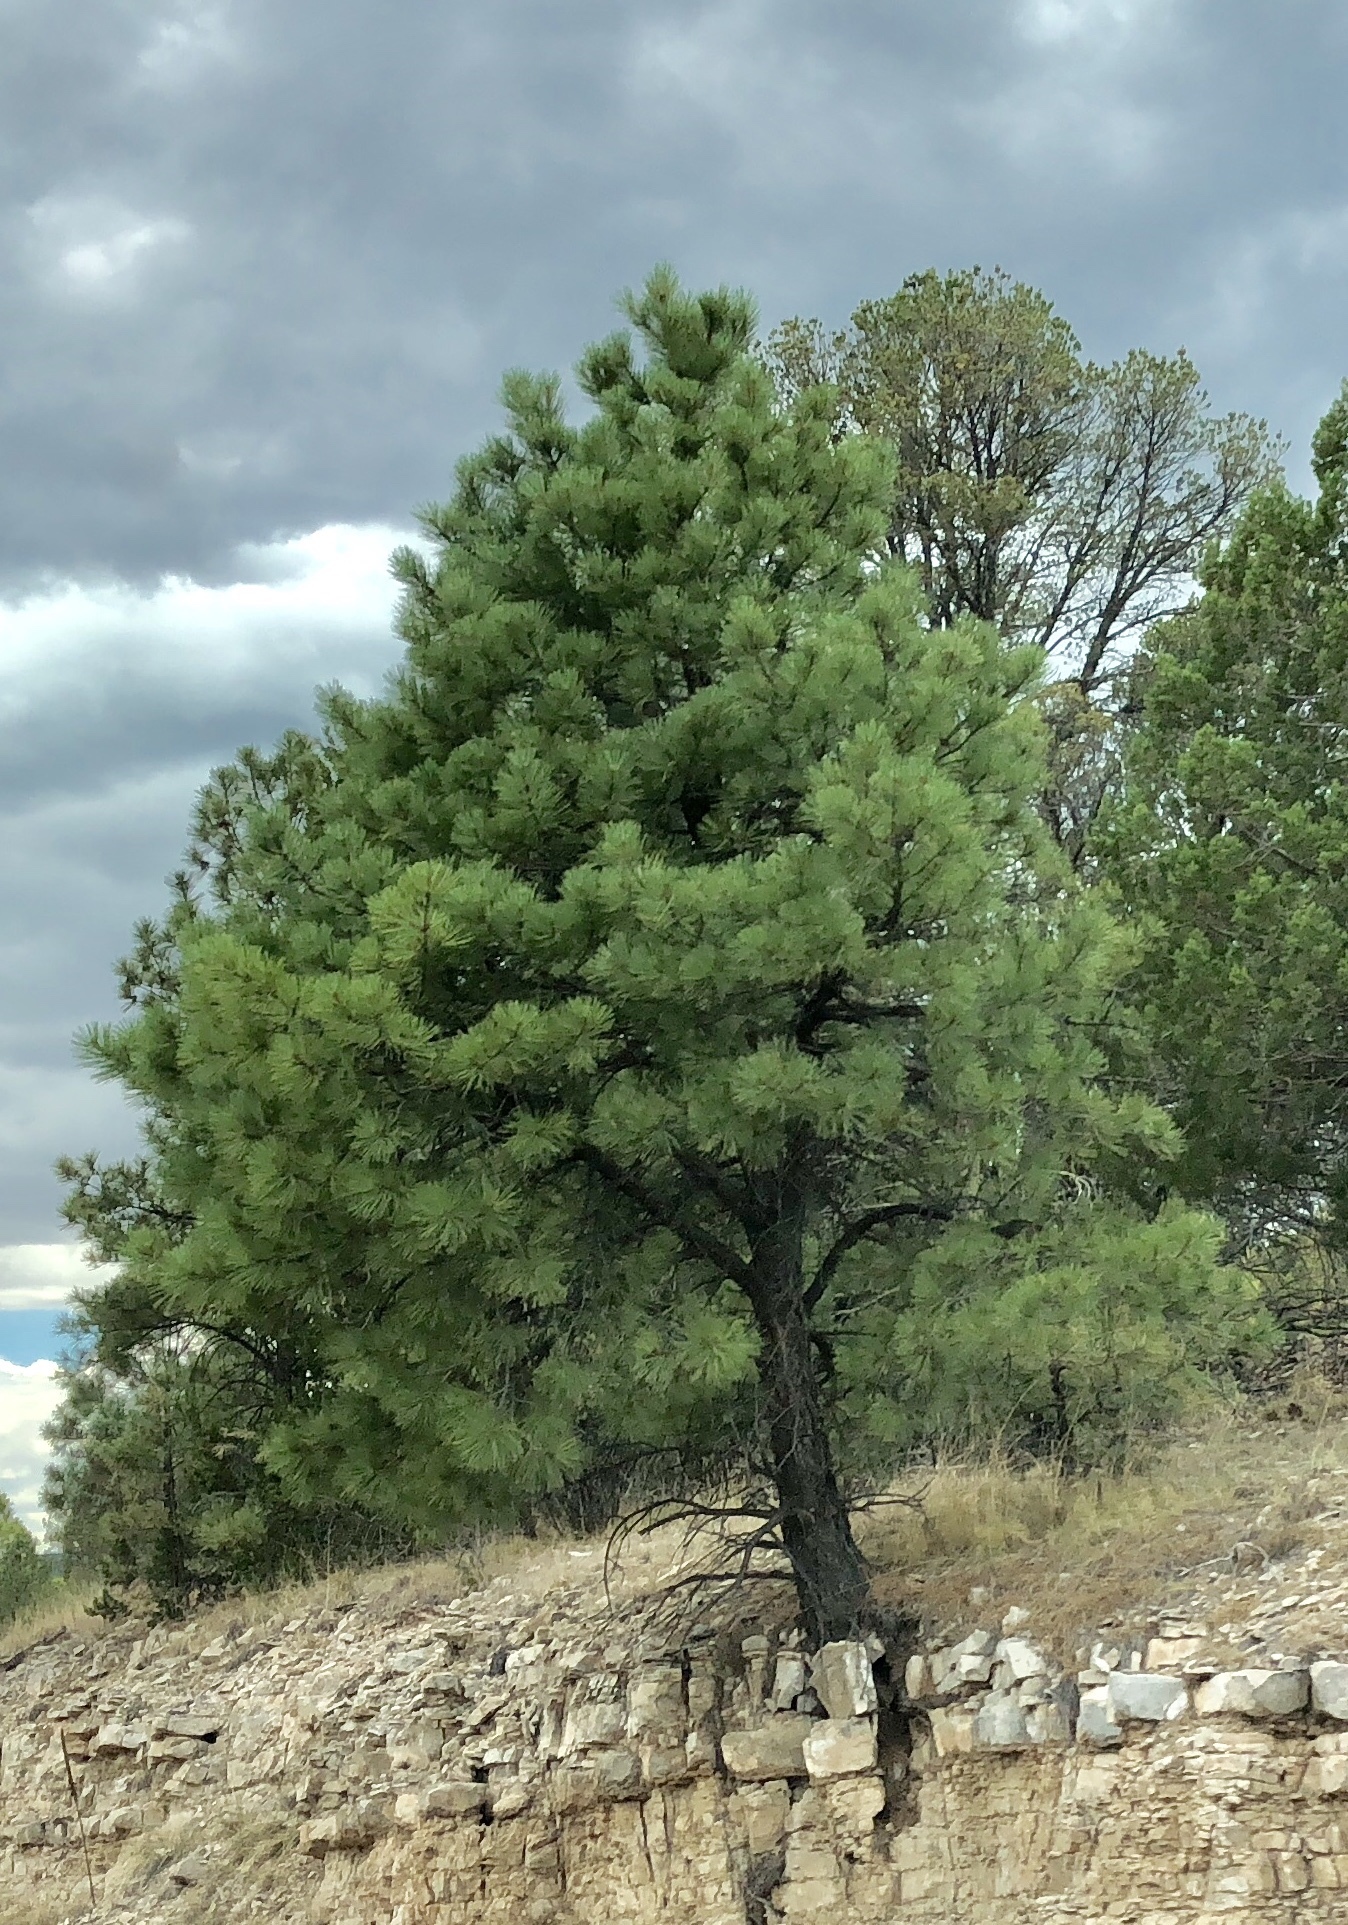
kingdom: Plantae
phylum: Tracheophyta
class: Pinopsida
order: Pinales
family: Pinaceae
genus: Pinus
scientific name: Pinus ponderosa
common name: Western yellow-pine
